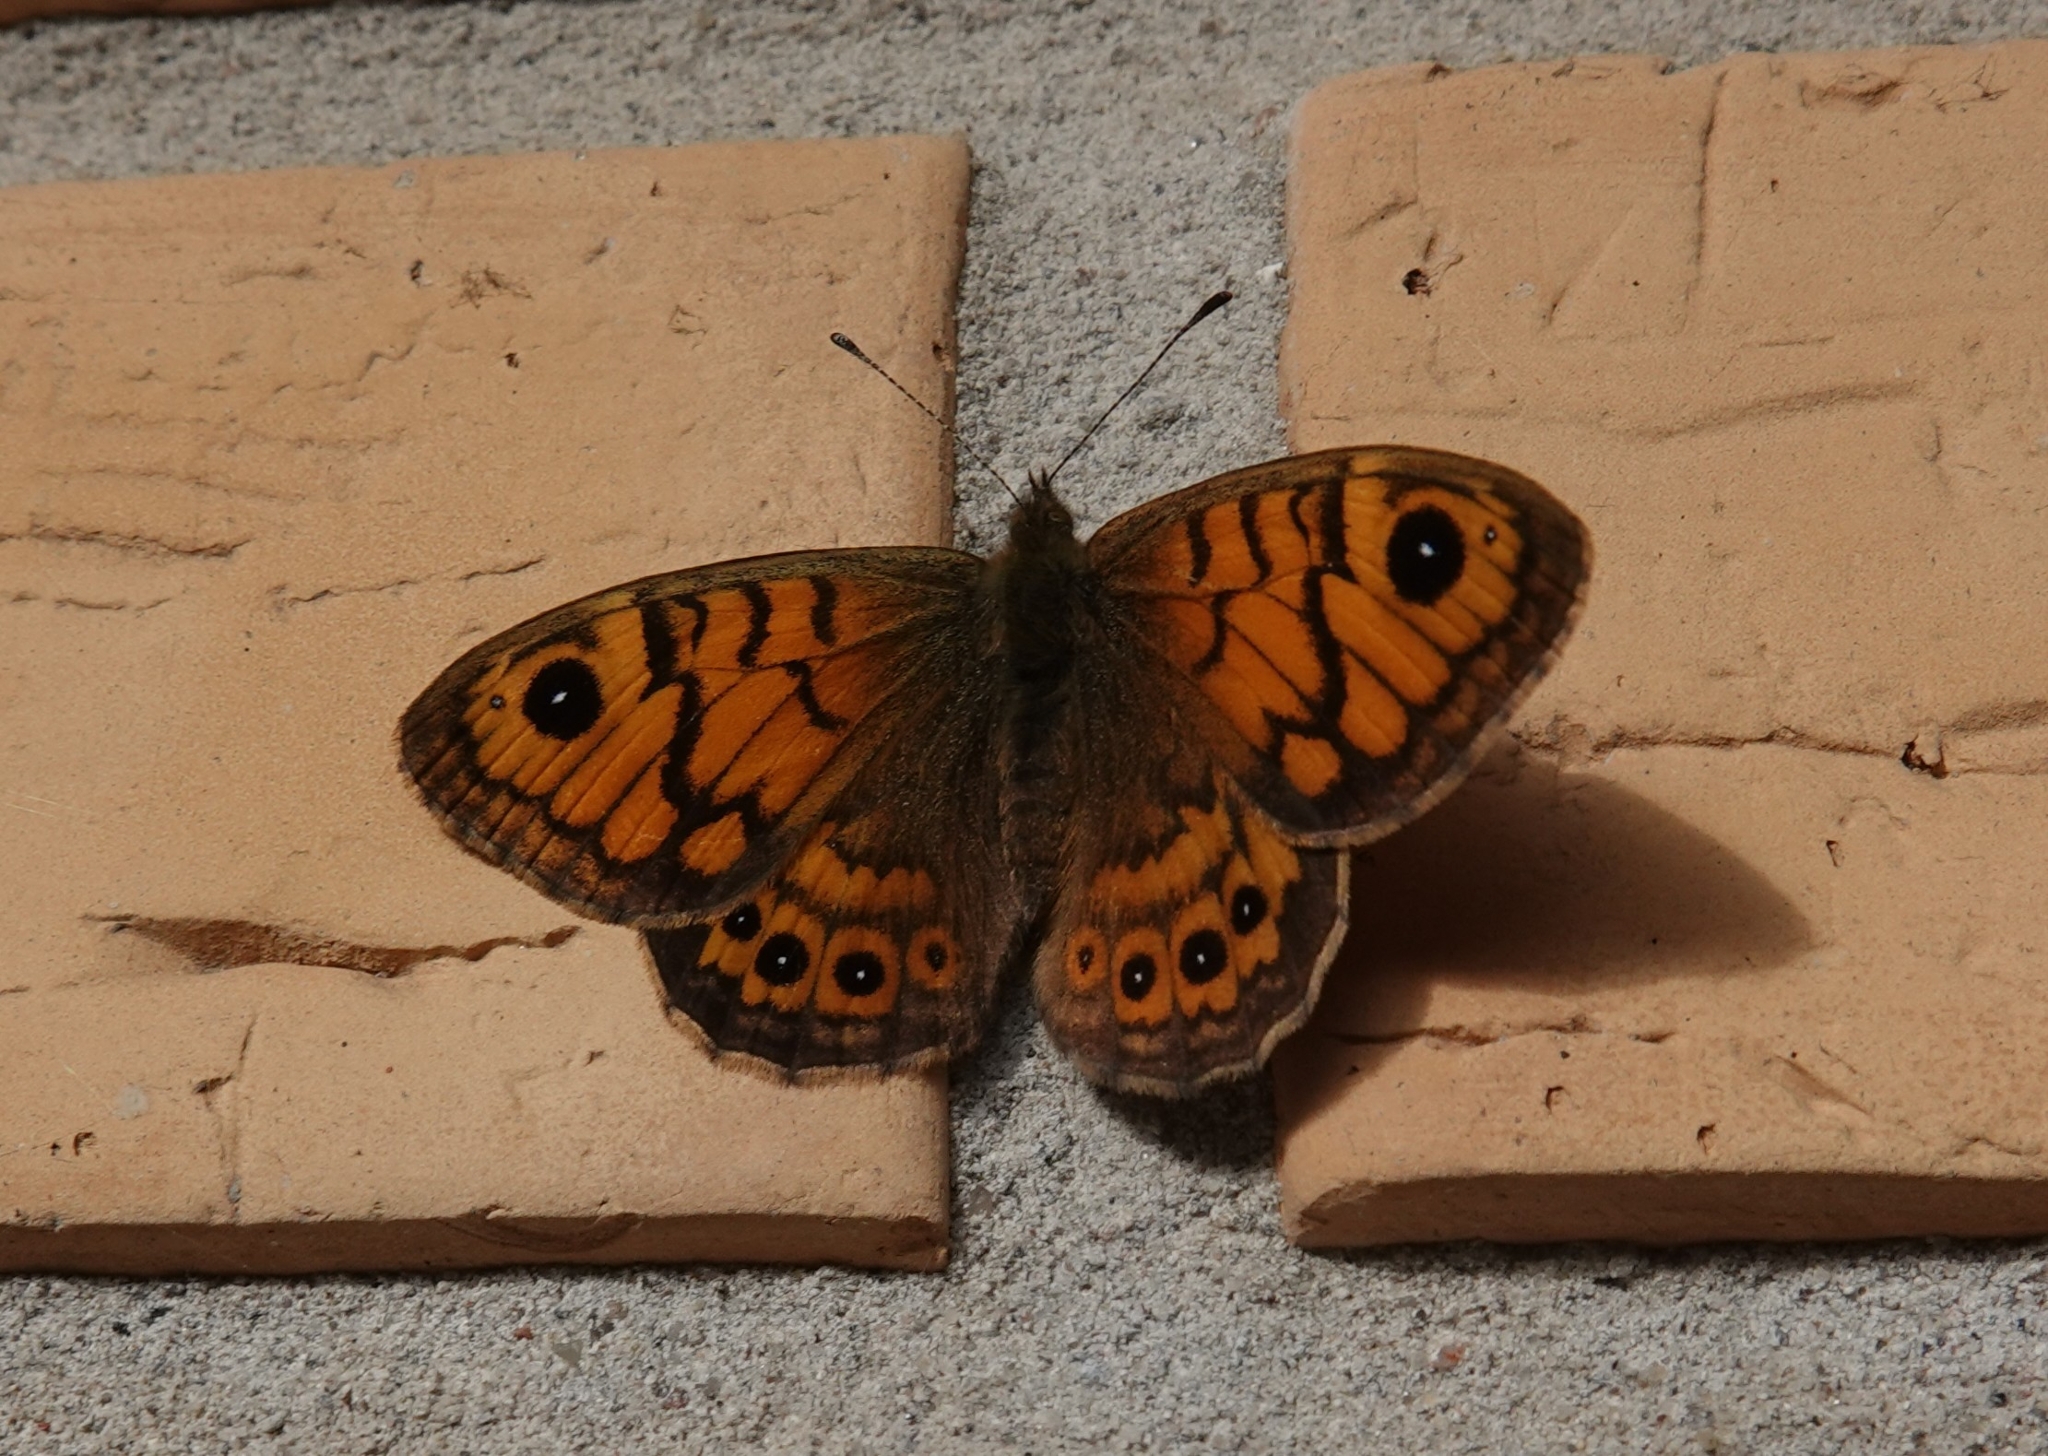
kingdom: Animalia
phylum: Arthropoda
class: Insecta
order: Lepidoptera
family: Nymphalidae
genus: Pararge
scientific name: Pararge Lasiommata megera
